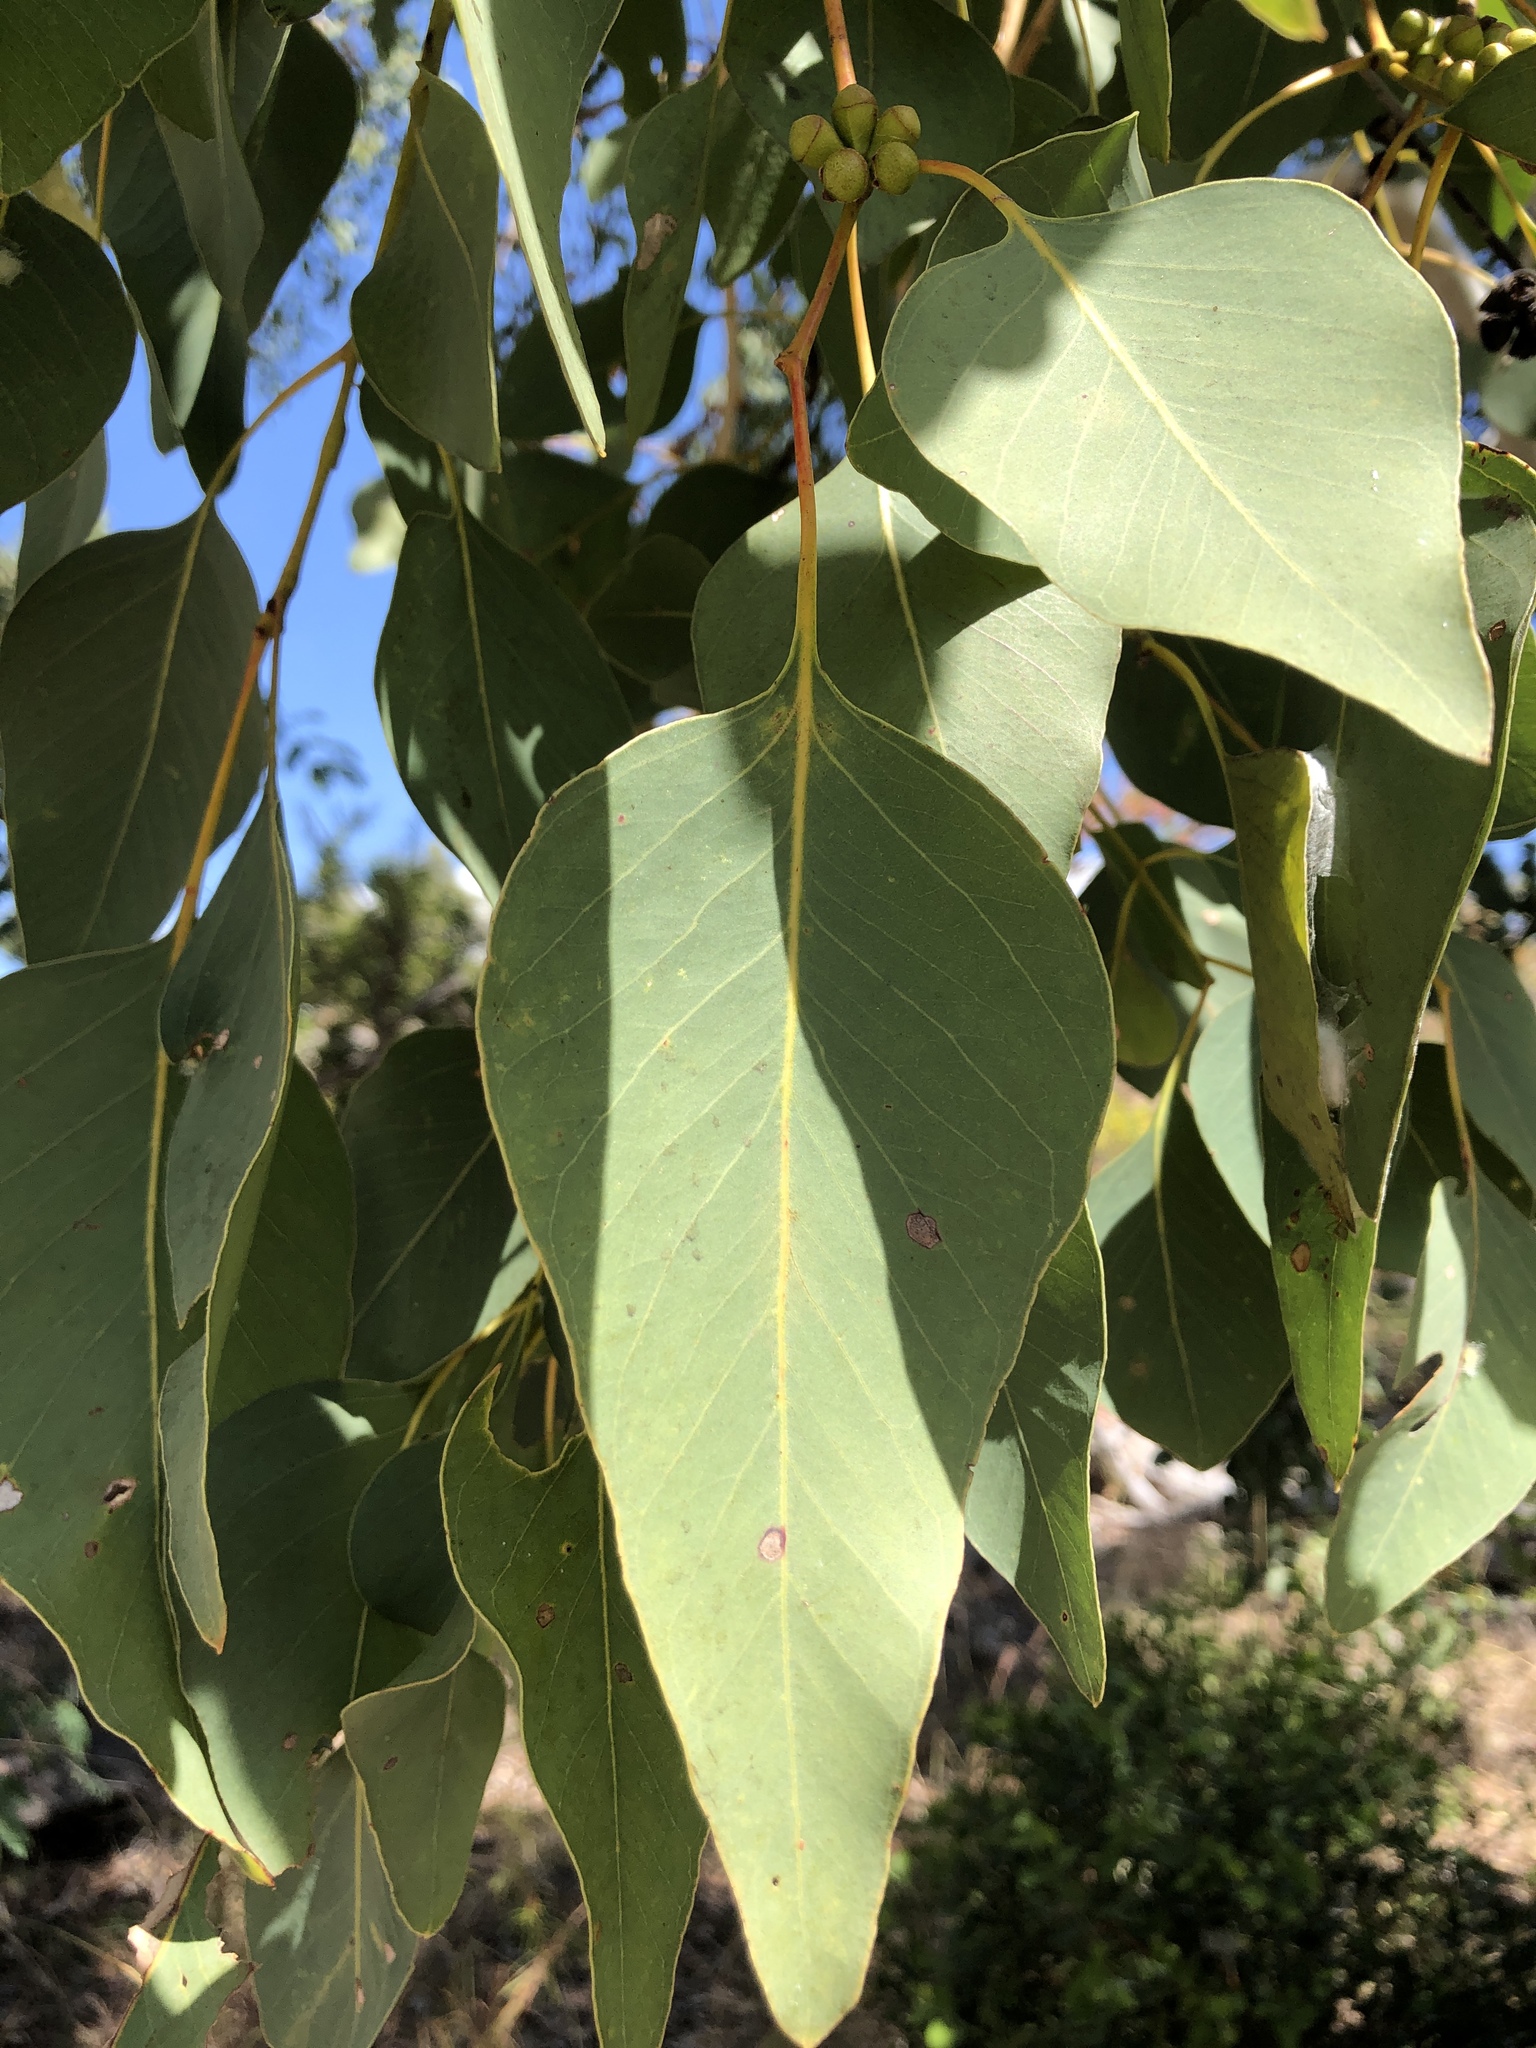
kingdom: Plantae
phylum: Tracheophyta
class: Magnoliopsida
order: Myrtales
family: Myrtaceae
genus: Eucalyptus
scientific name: Eucalyptus platyphylla
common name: Poplar-gum
